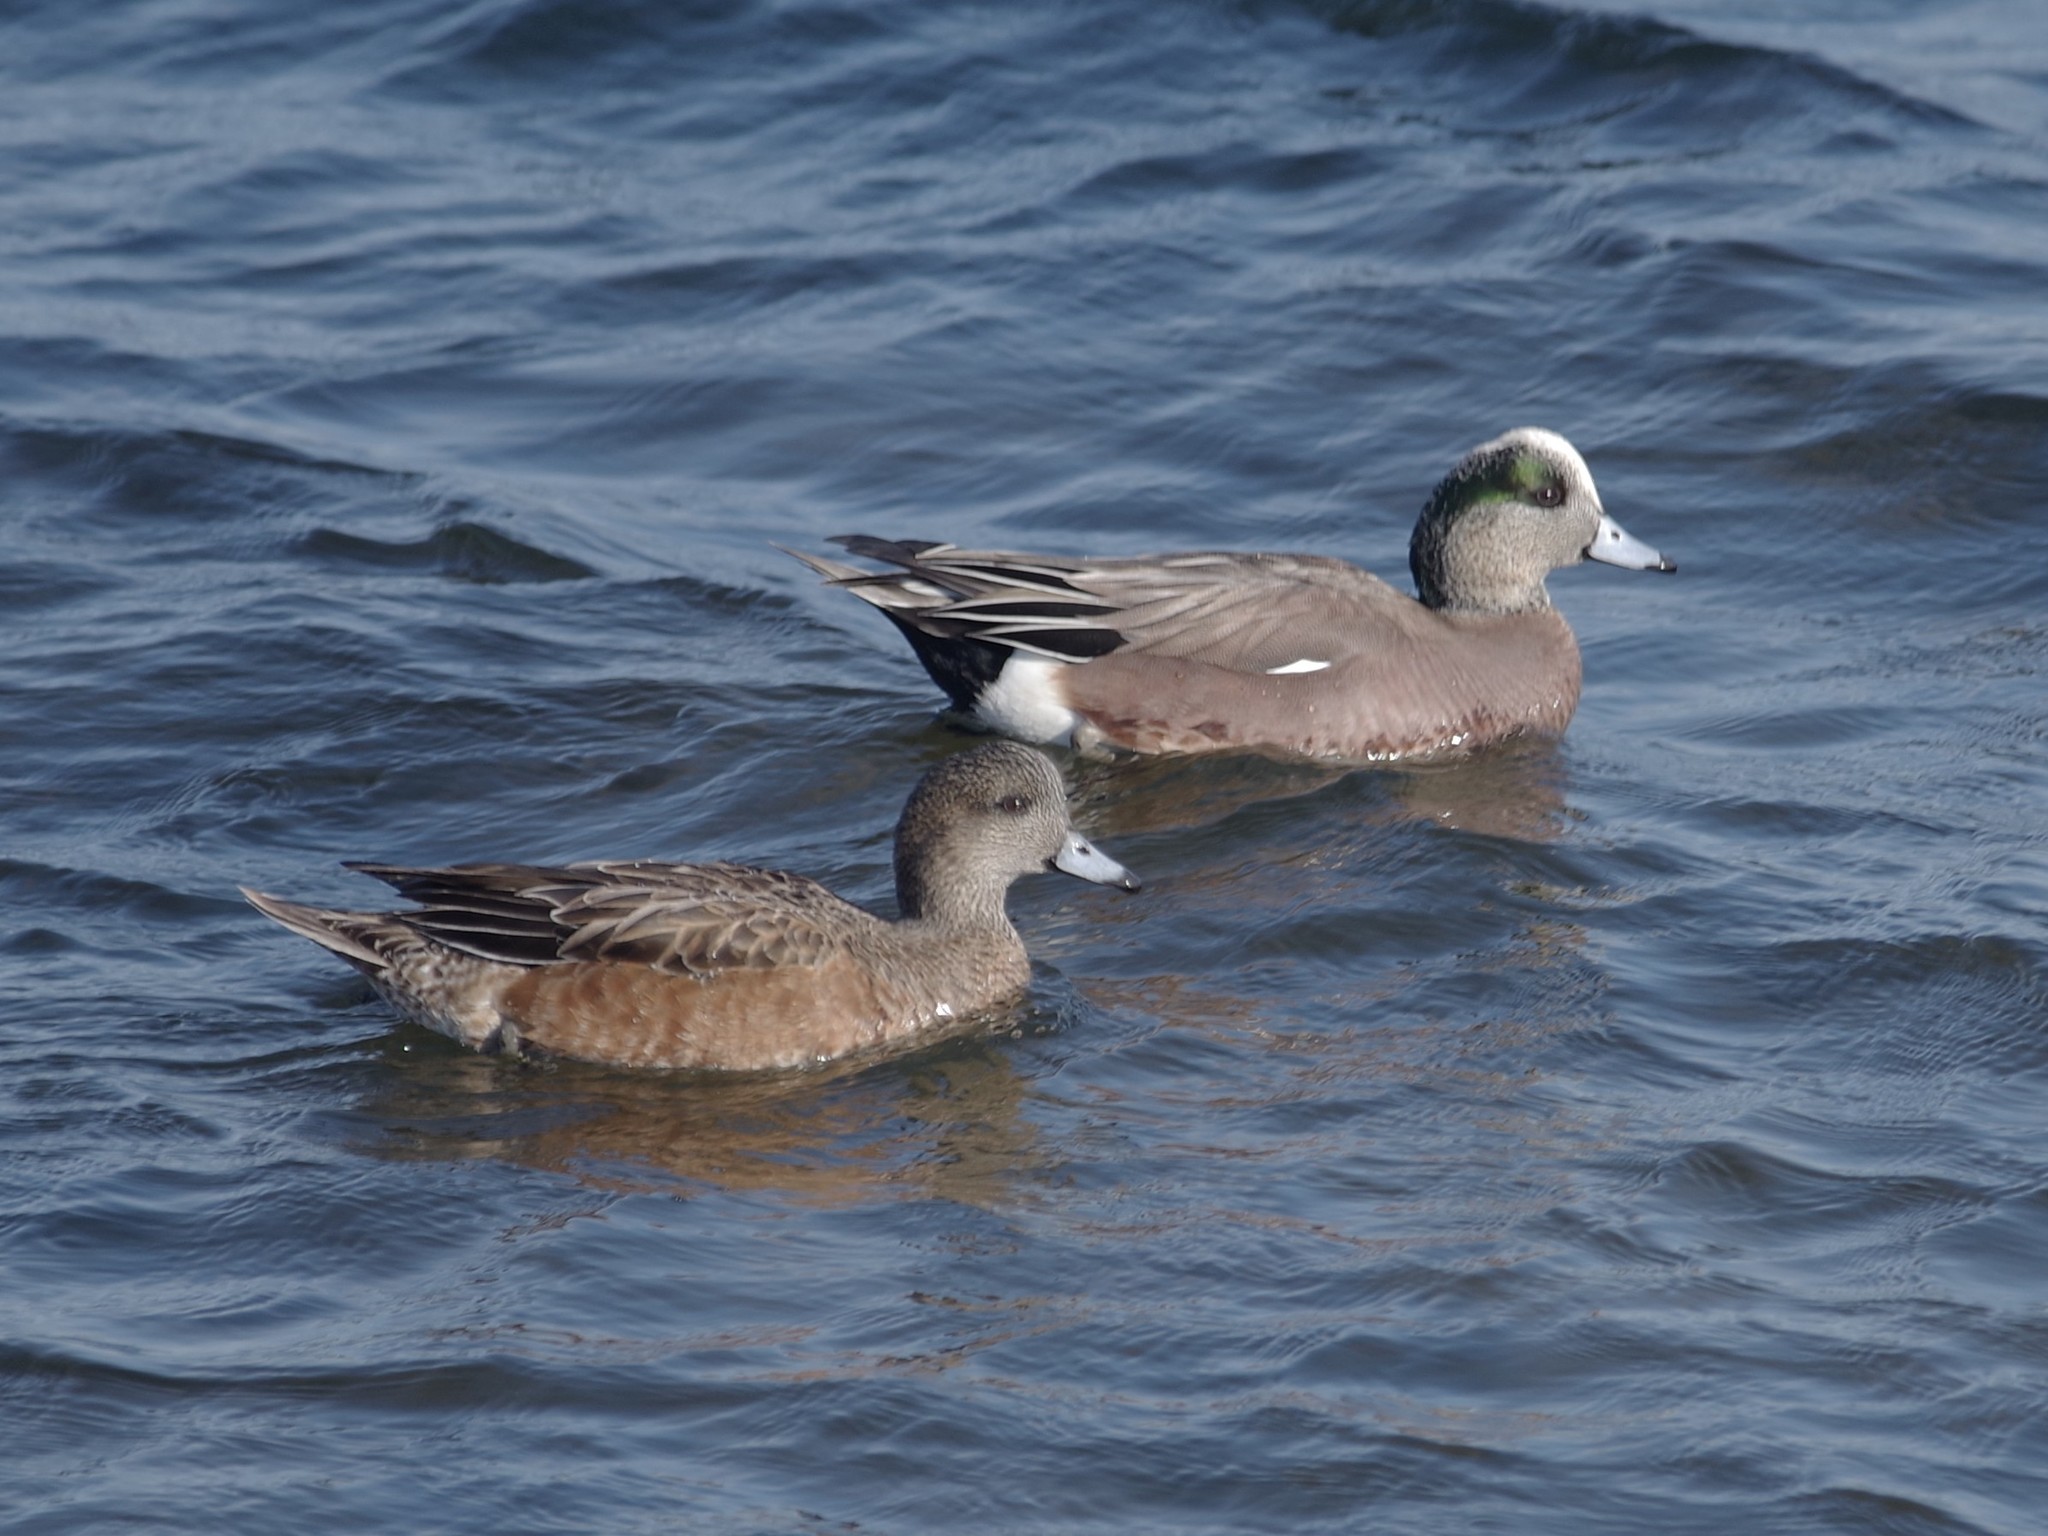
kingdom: Animalia
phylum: Chordata
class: Aves
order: Anseriformes
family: Anatidae
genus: Mareca
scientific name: Mareca americana
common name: American wigeon
